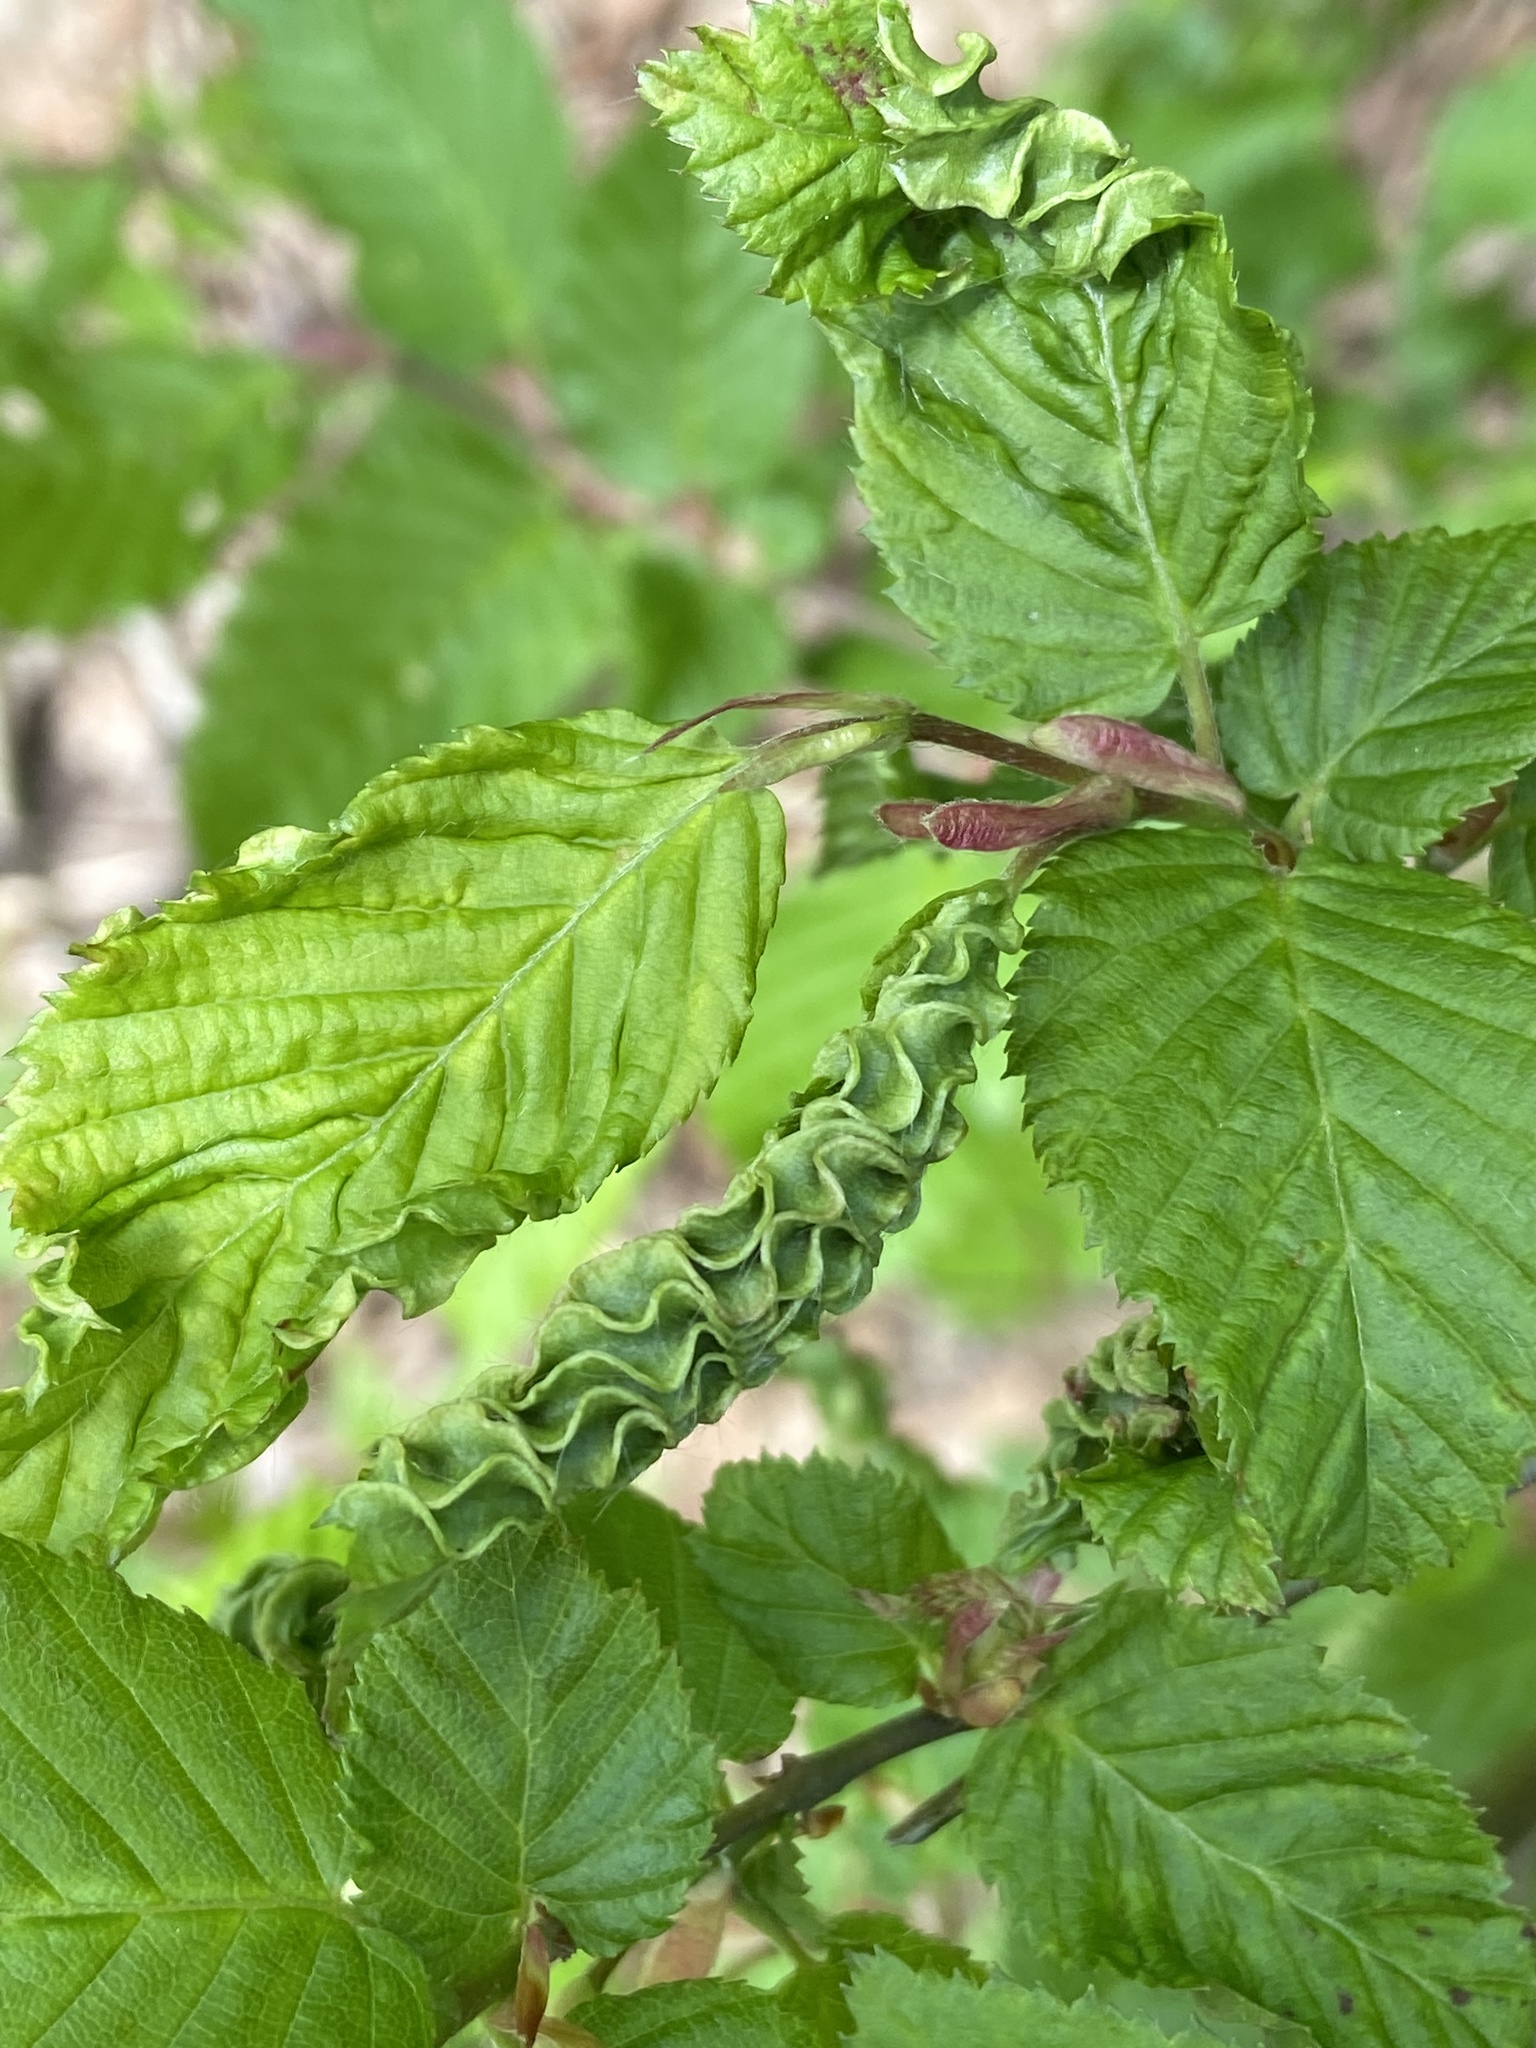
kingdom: Animalia
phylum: Arthropoda
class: Arachnida
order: Trombidiformes
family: Eriophyidae
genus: Aculops
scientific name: Aculops macrotrichus
